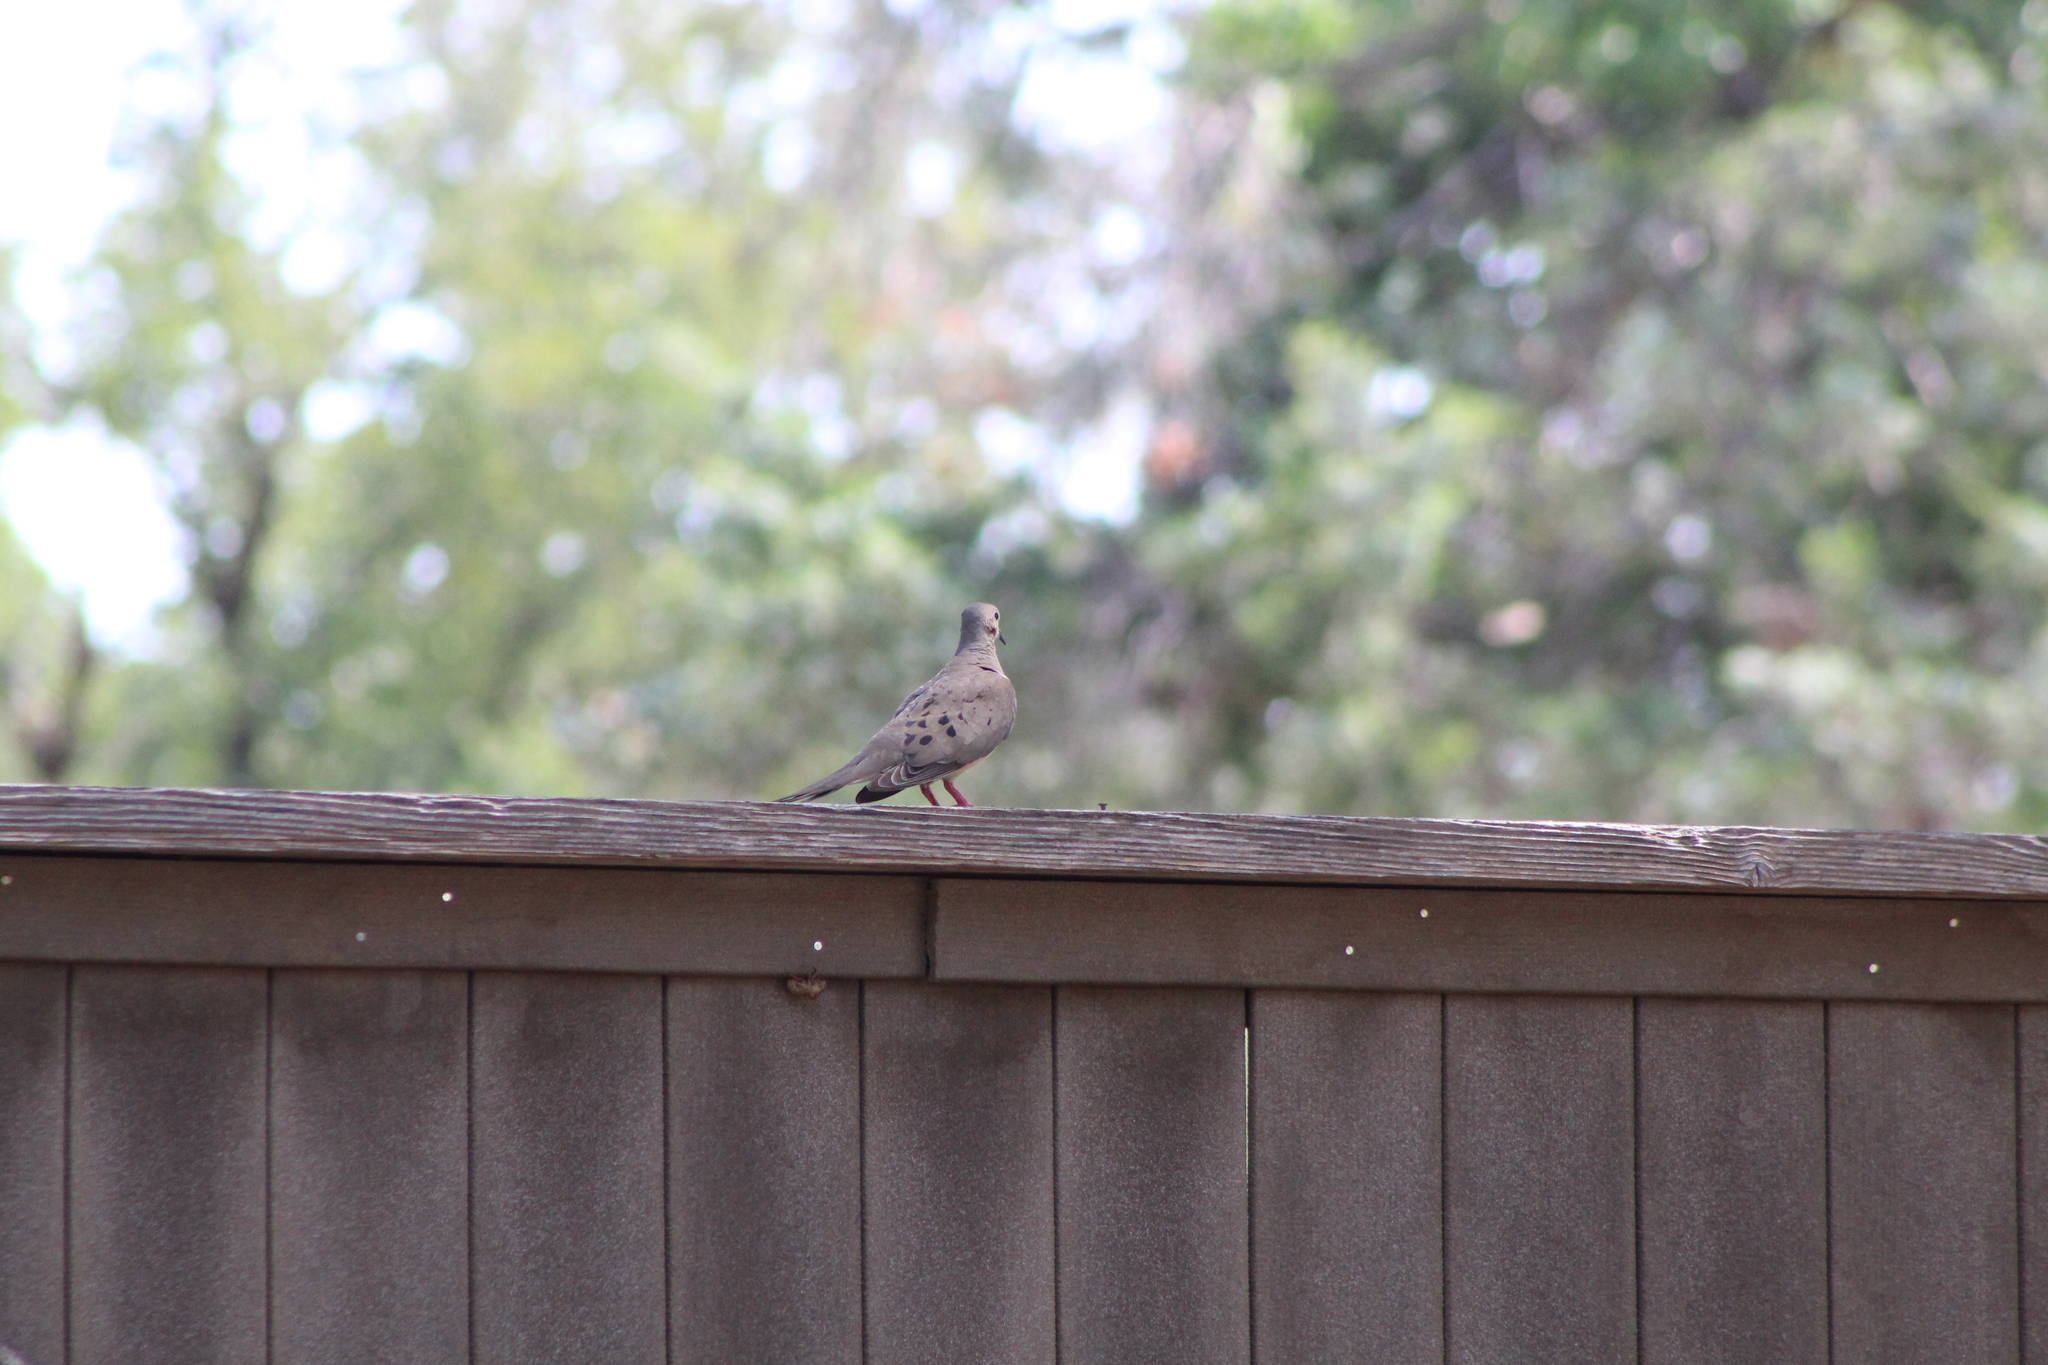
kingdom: Animalia
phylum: Chordata
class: Aves
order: Columbiformes
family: Columbidae
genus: Zenaida
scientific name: Zenaida macroura
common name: Mourning dove
